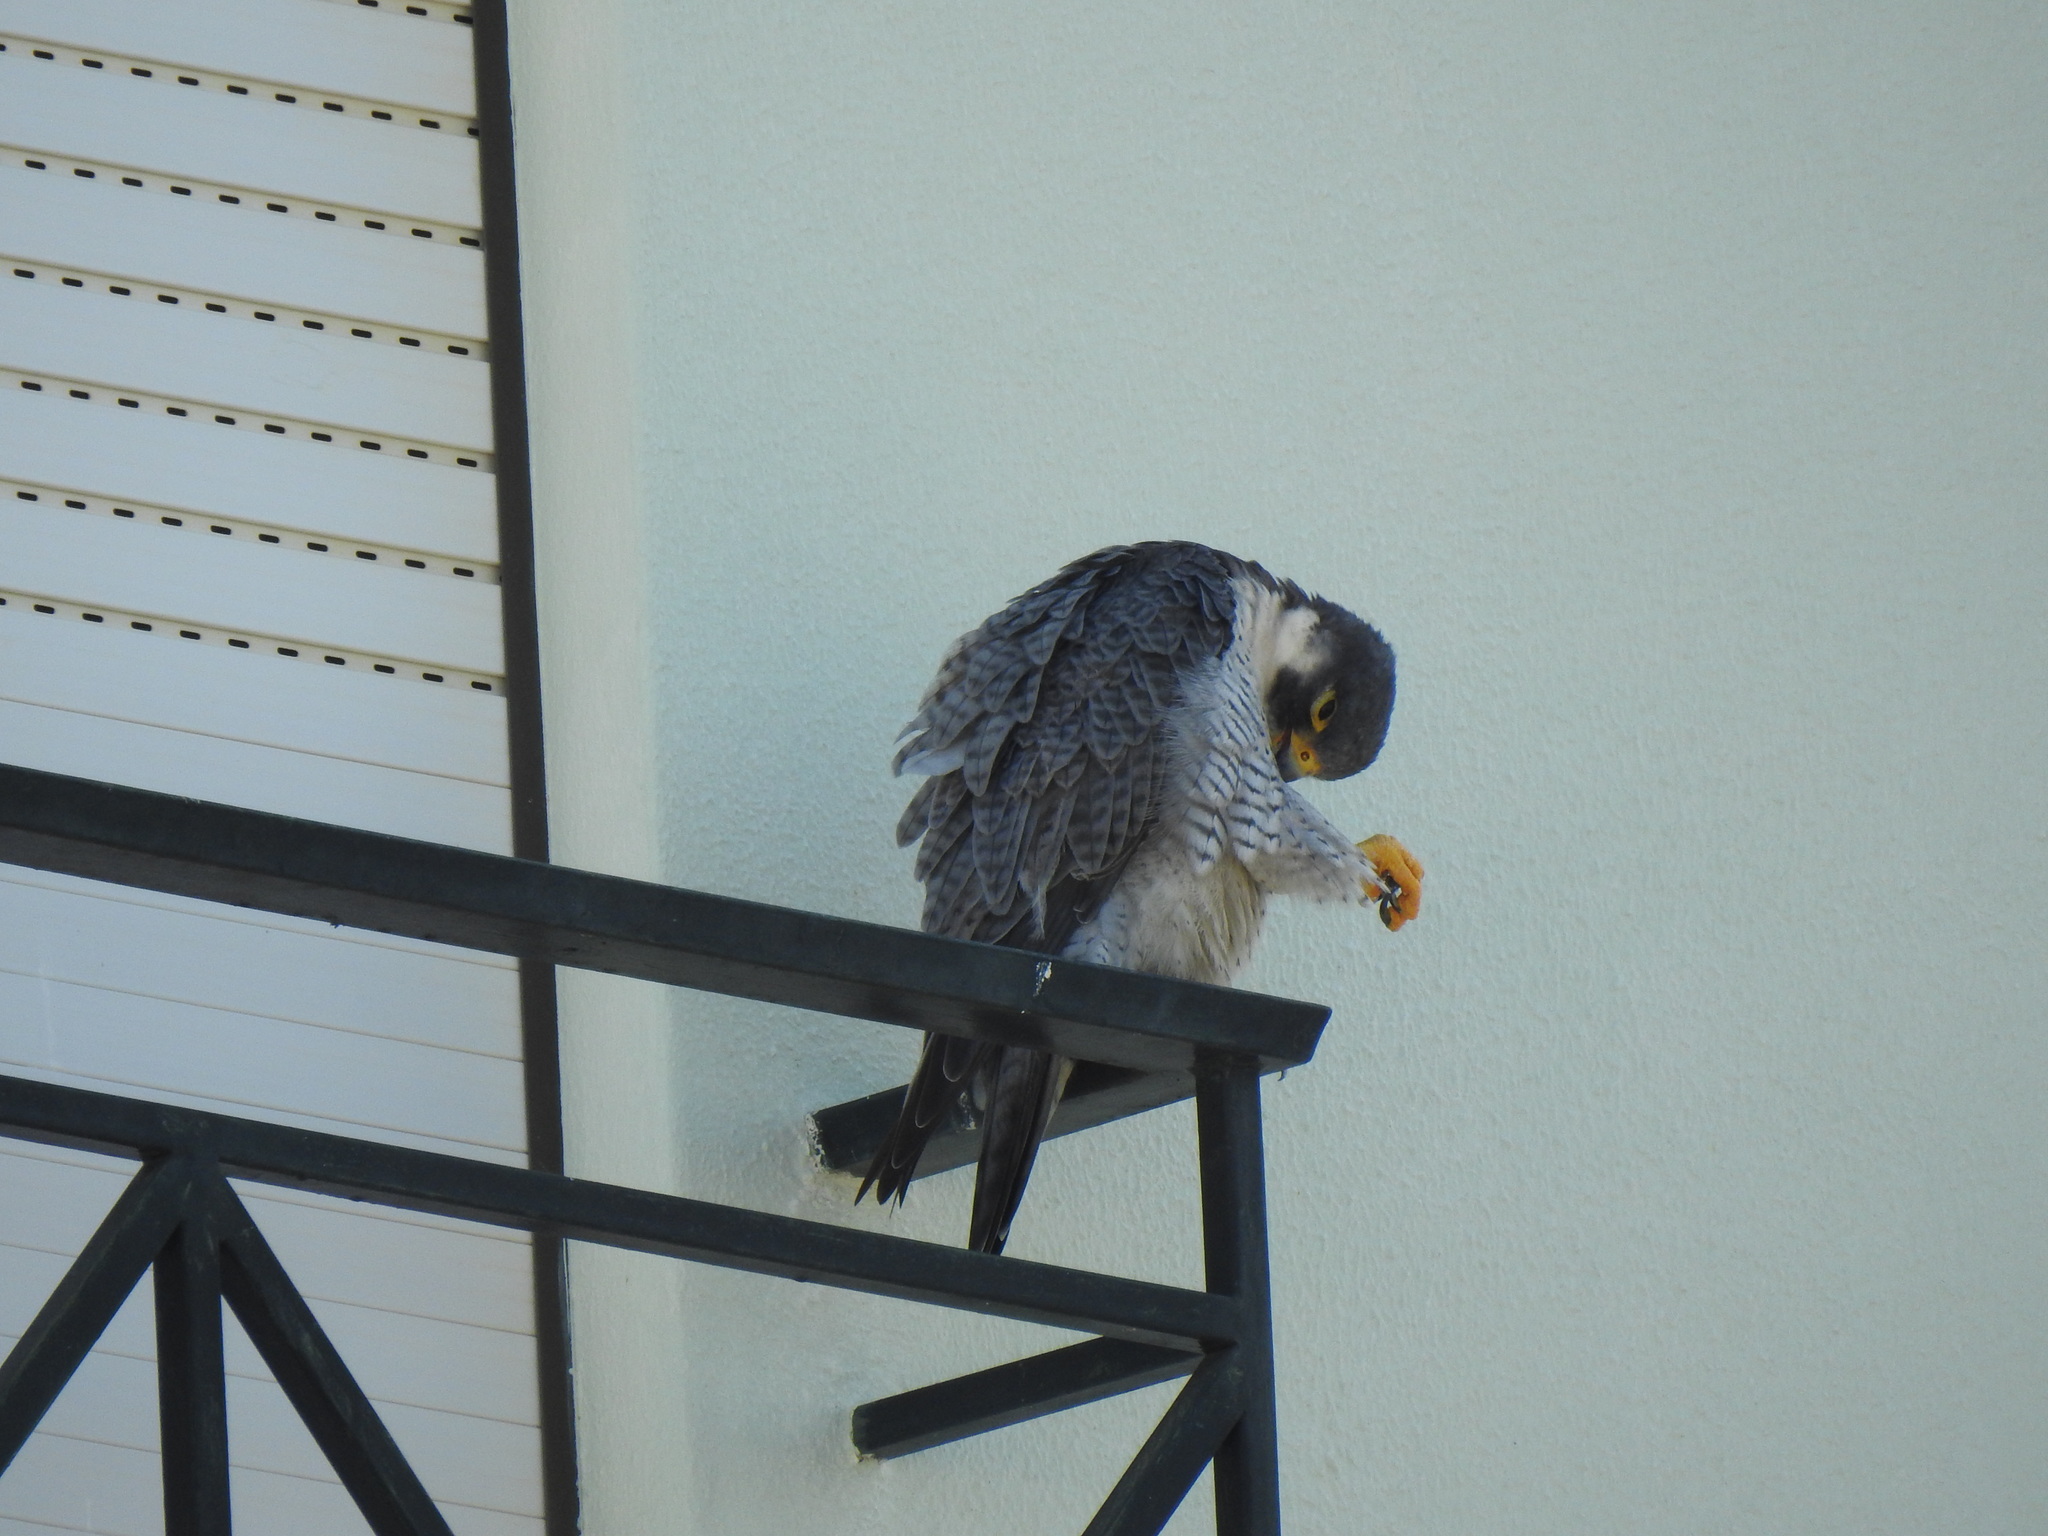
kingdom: Animalia
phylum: Chordata
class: Aves
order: Falconiformes
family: Falconidae
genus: Falco
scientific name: Falco peregrinus
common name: Peregrine falcon
